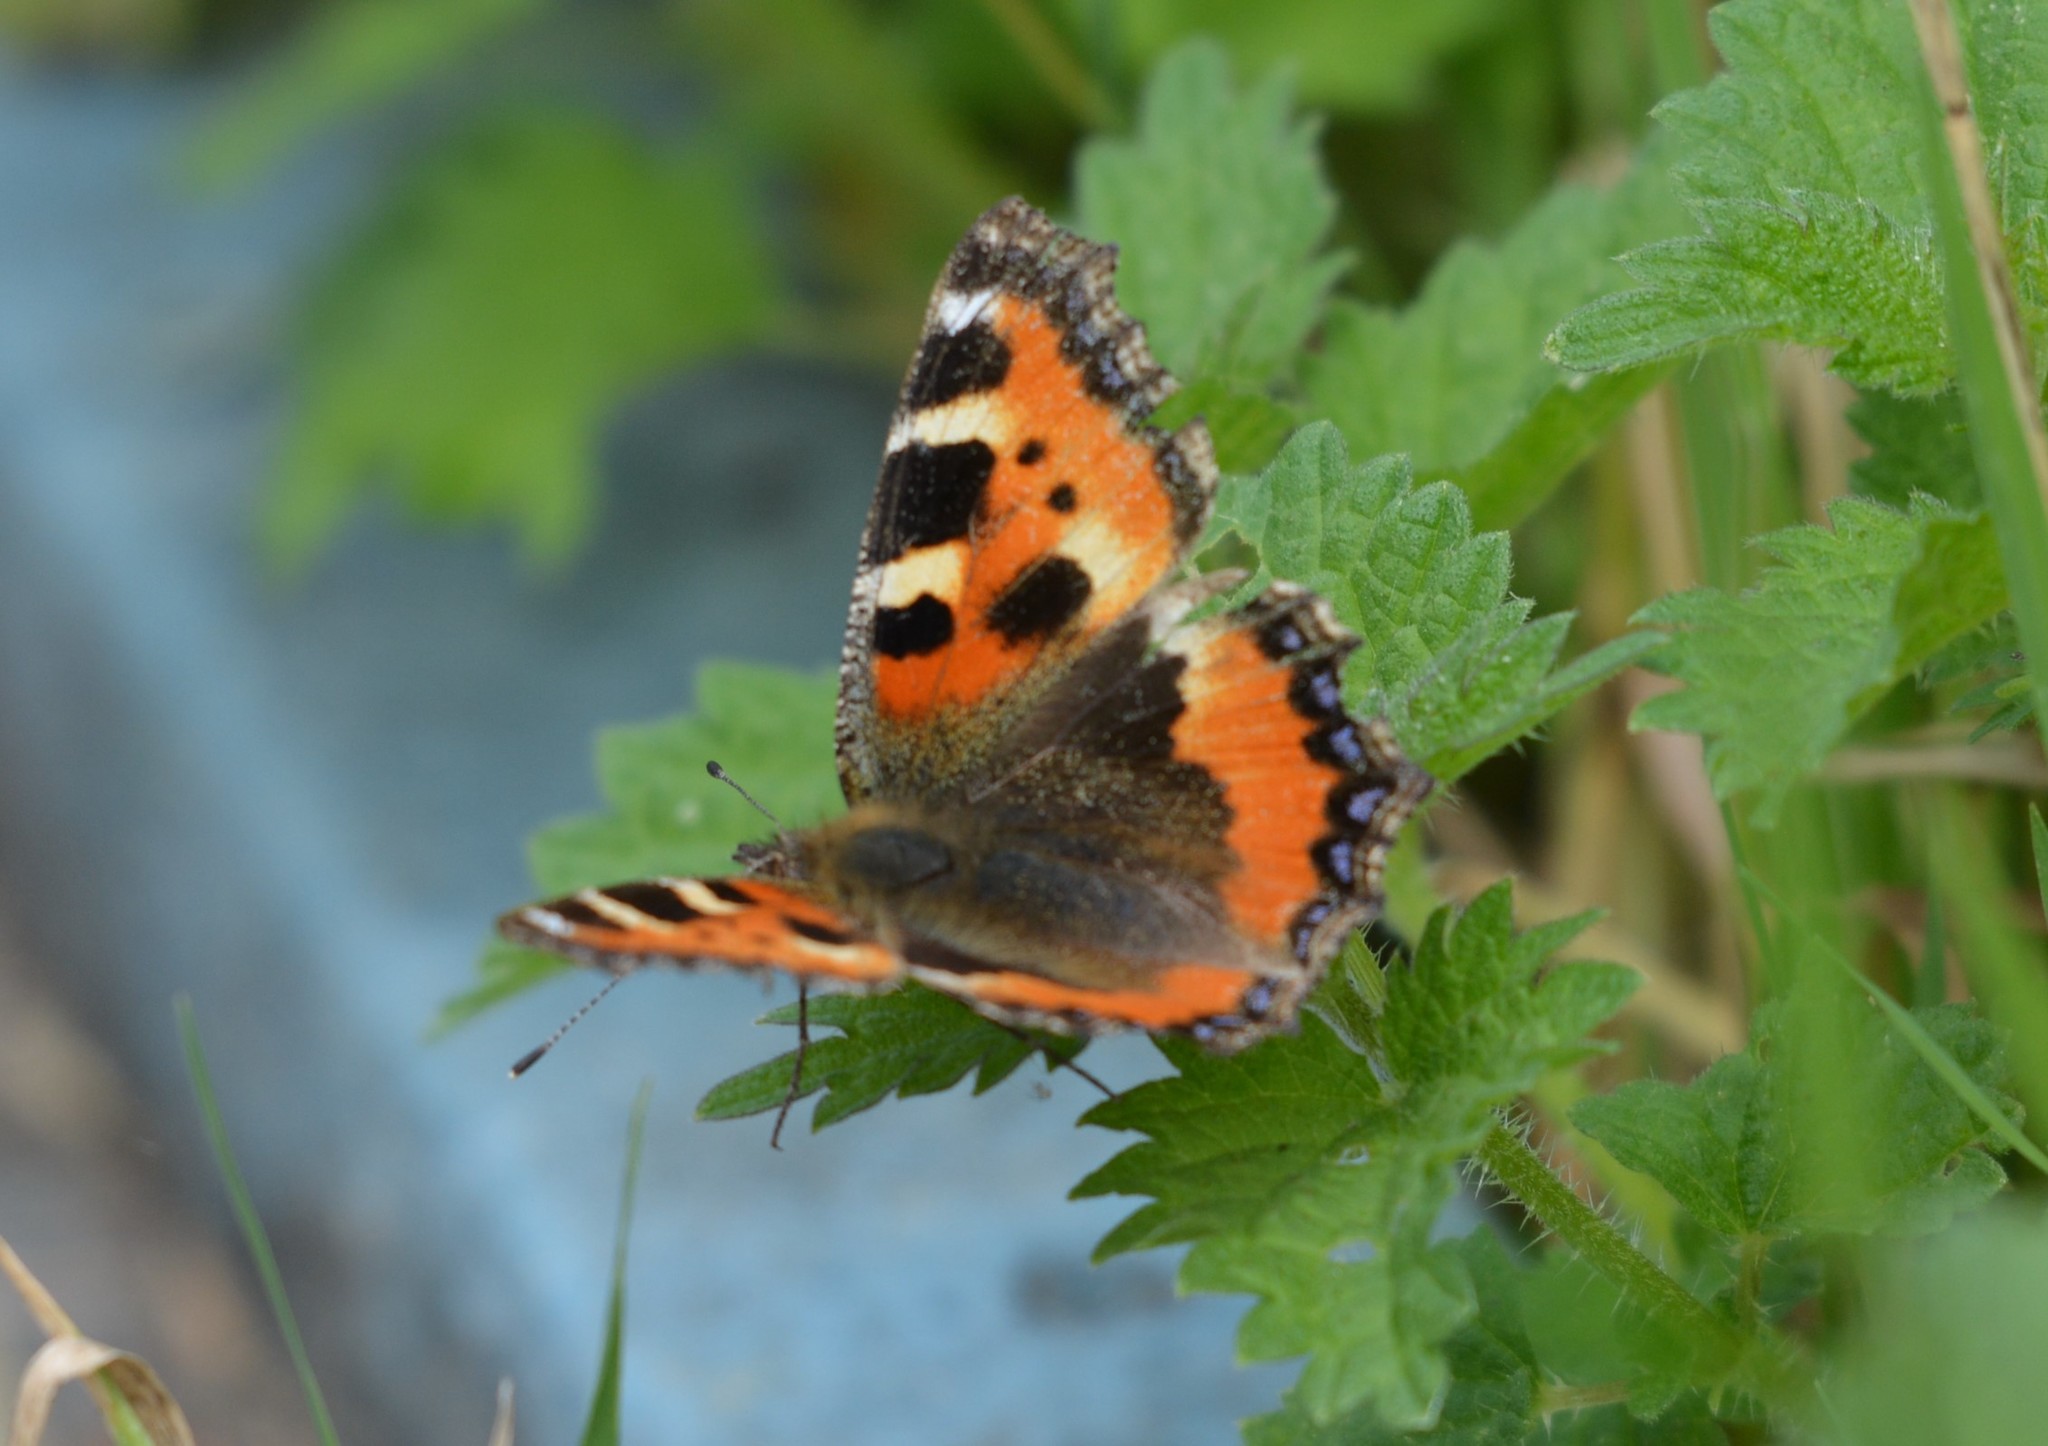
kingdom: Animalia
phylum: Arthropoda
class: Insecta
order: Lepidoptera
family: Nymphalidae
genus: Aglais
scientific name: Aglais urticae
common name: Small tortoiseshell
